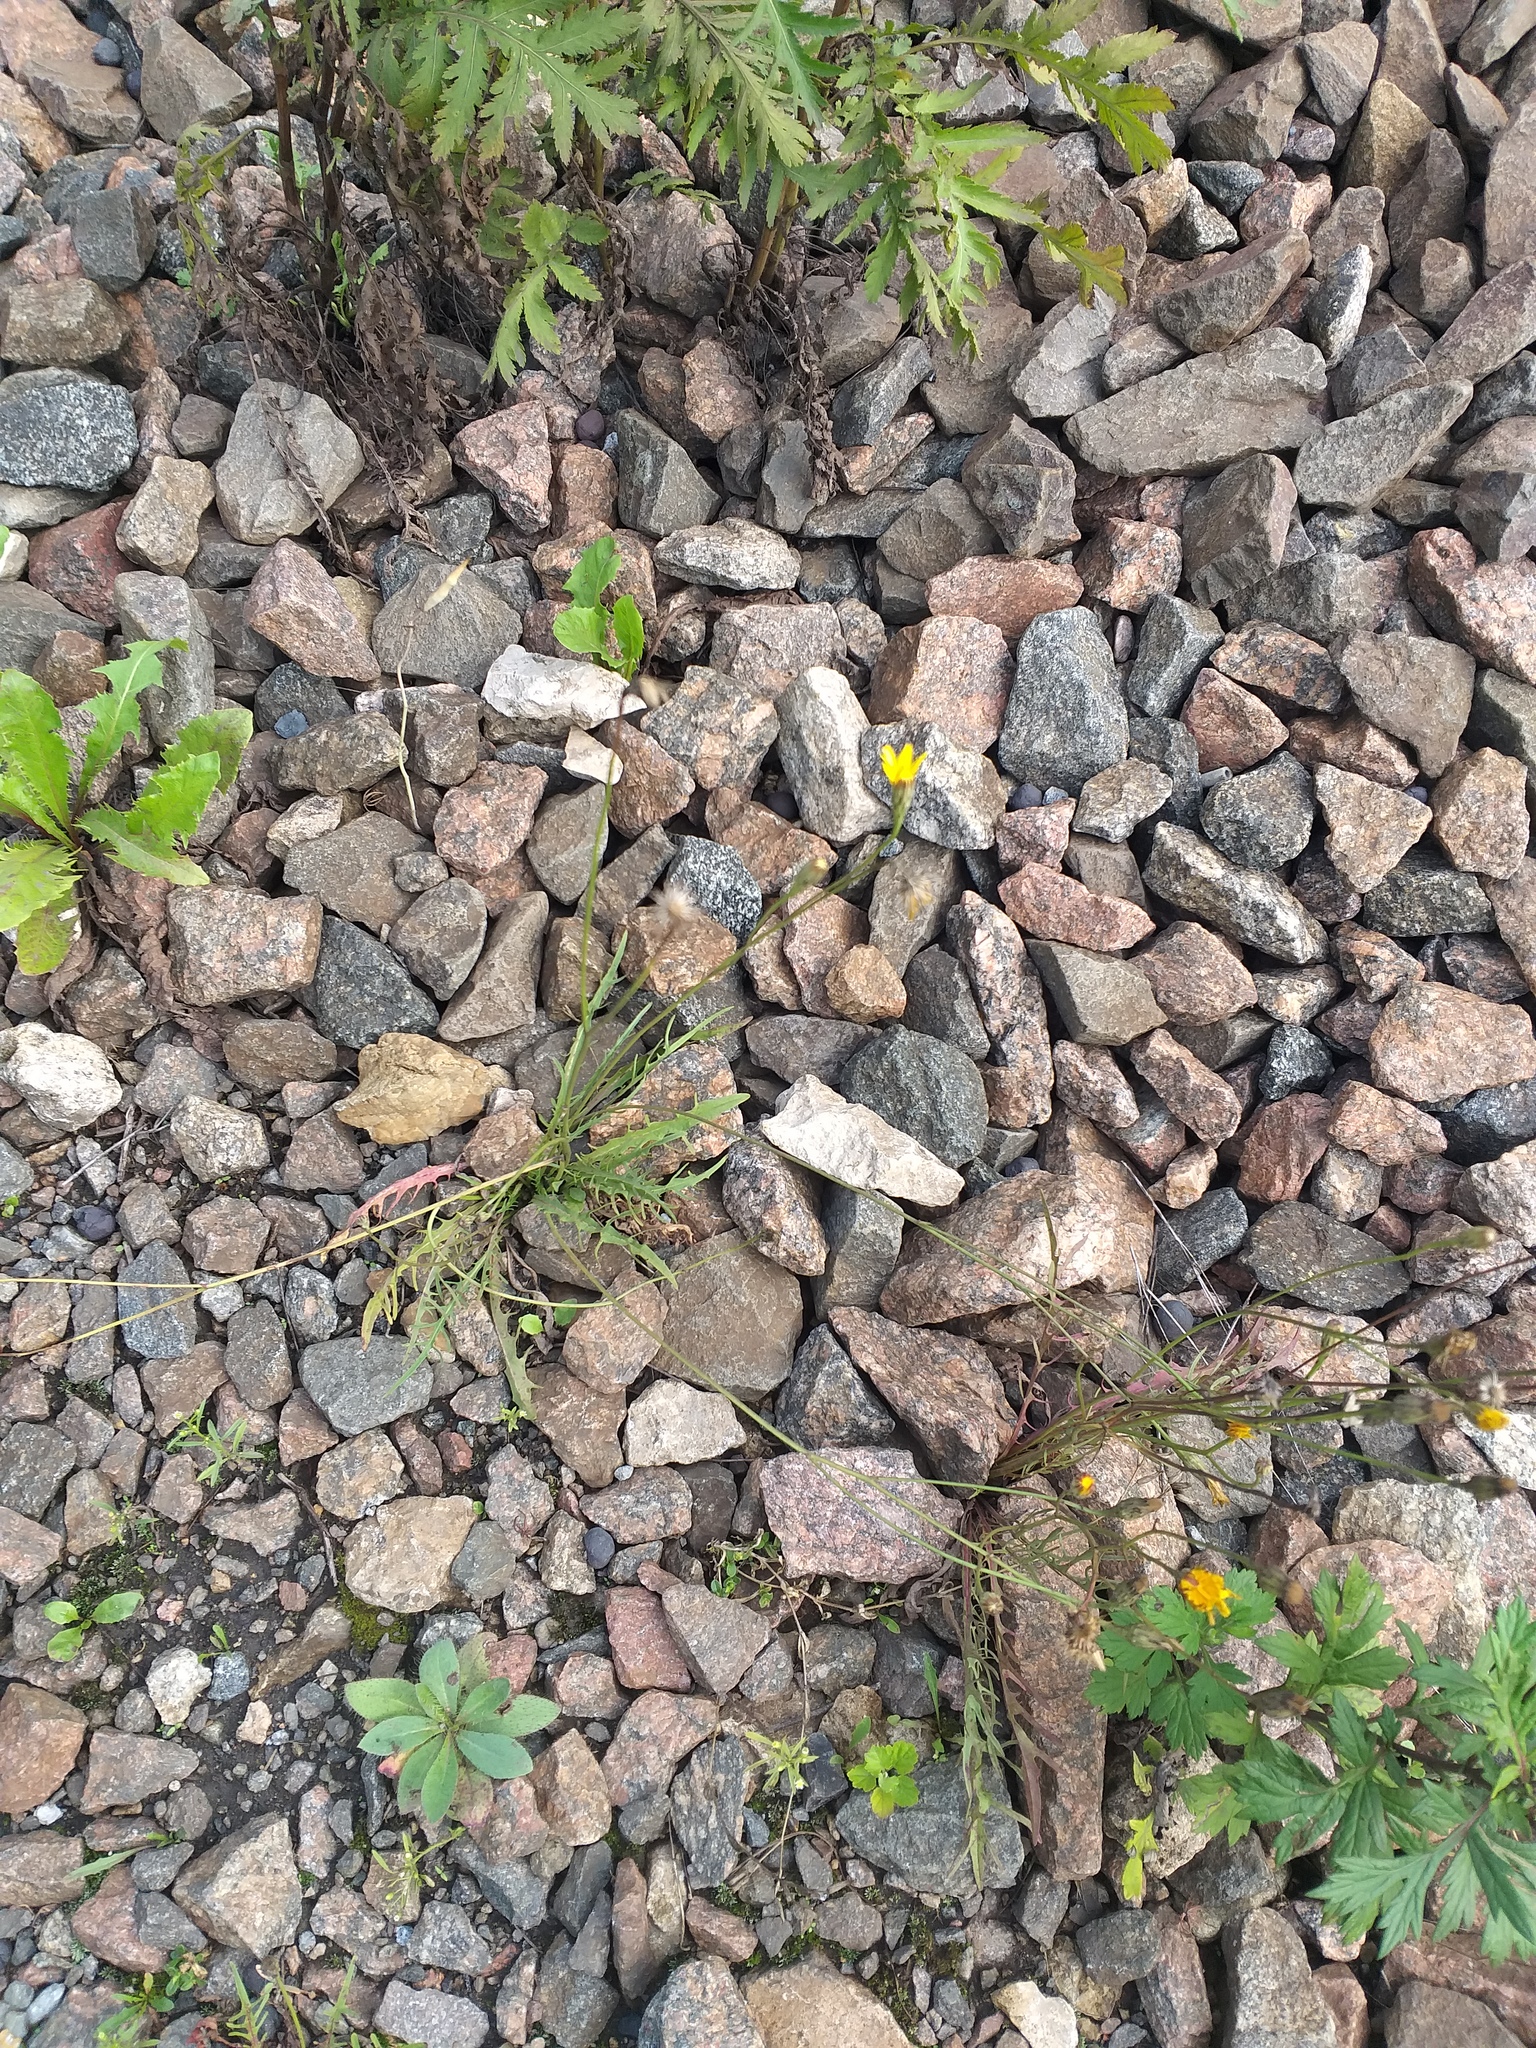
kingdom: Plantae
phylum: Tracheophyta
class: Magnoliopsida
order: Asterales
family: Asteraceae
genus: Scorzoneroides
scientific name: Scorzoneroides autumnalis
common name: Autumn hawkbit
